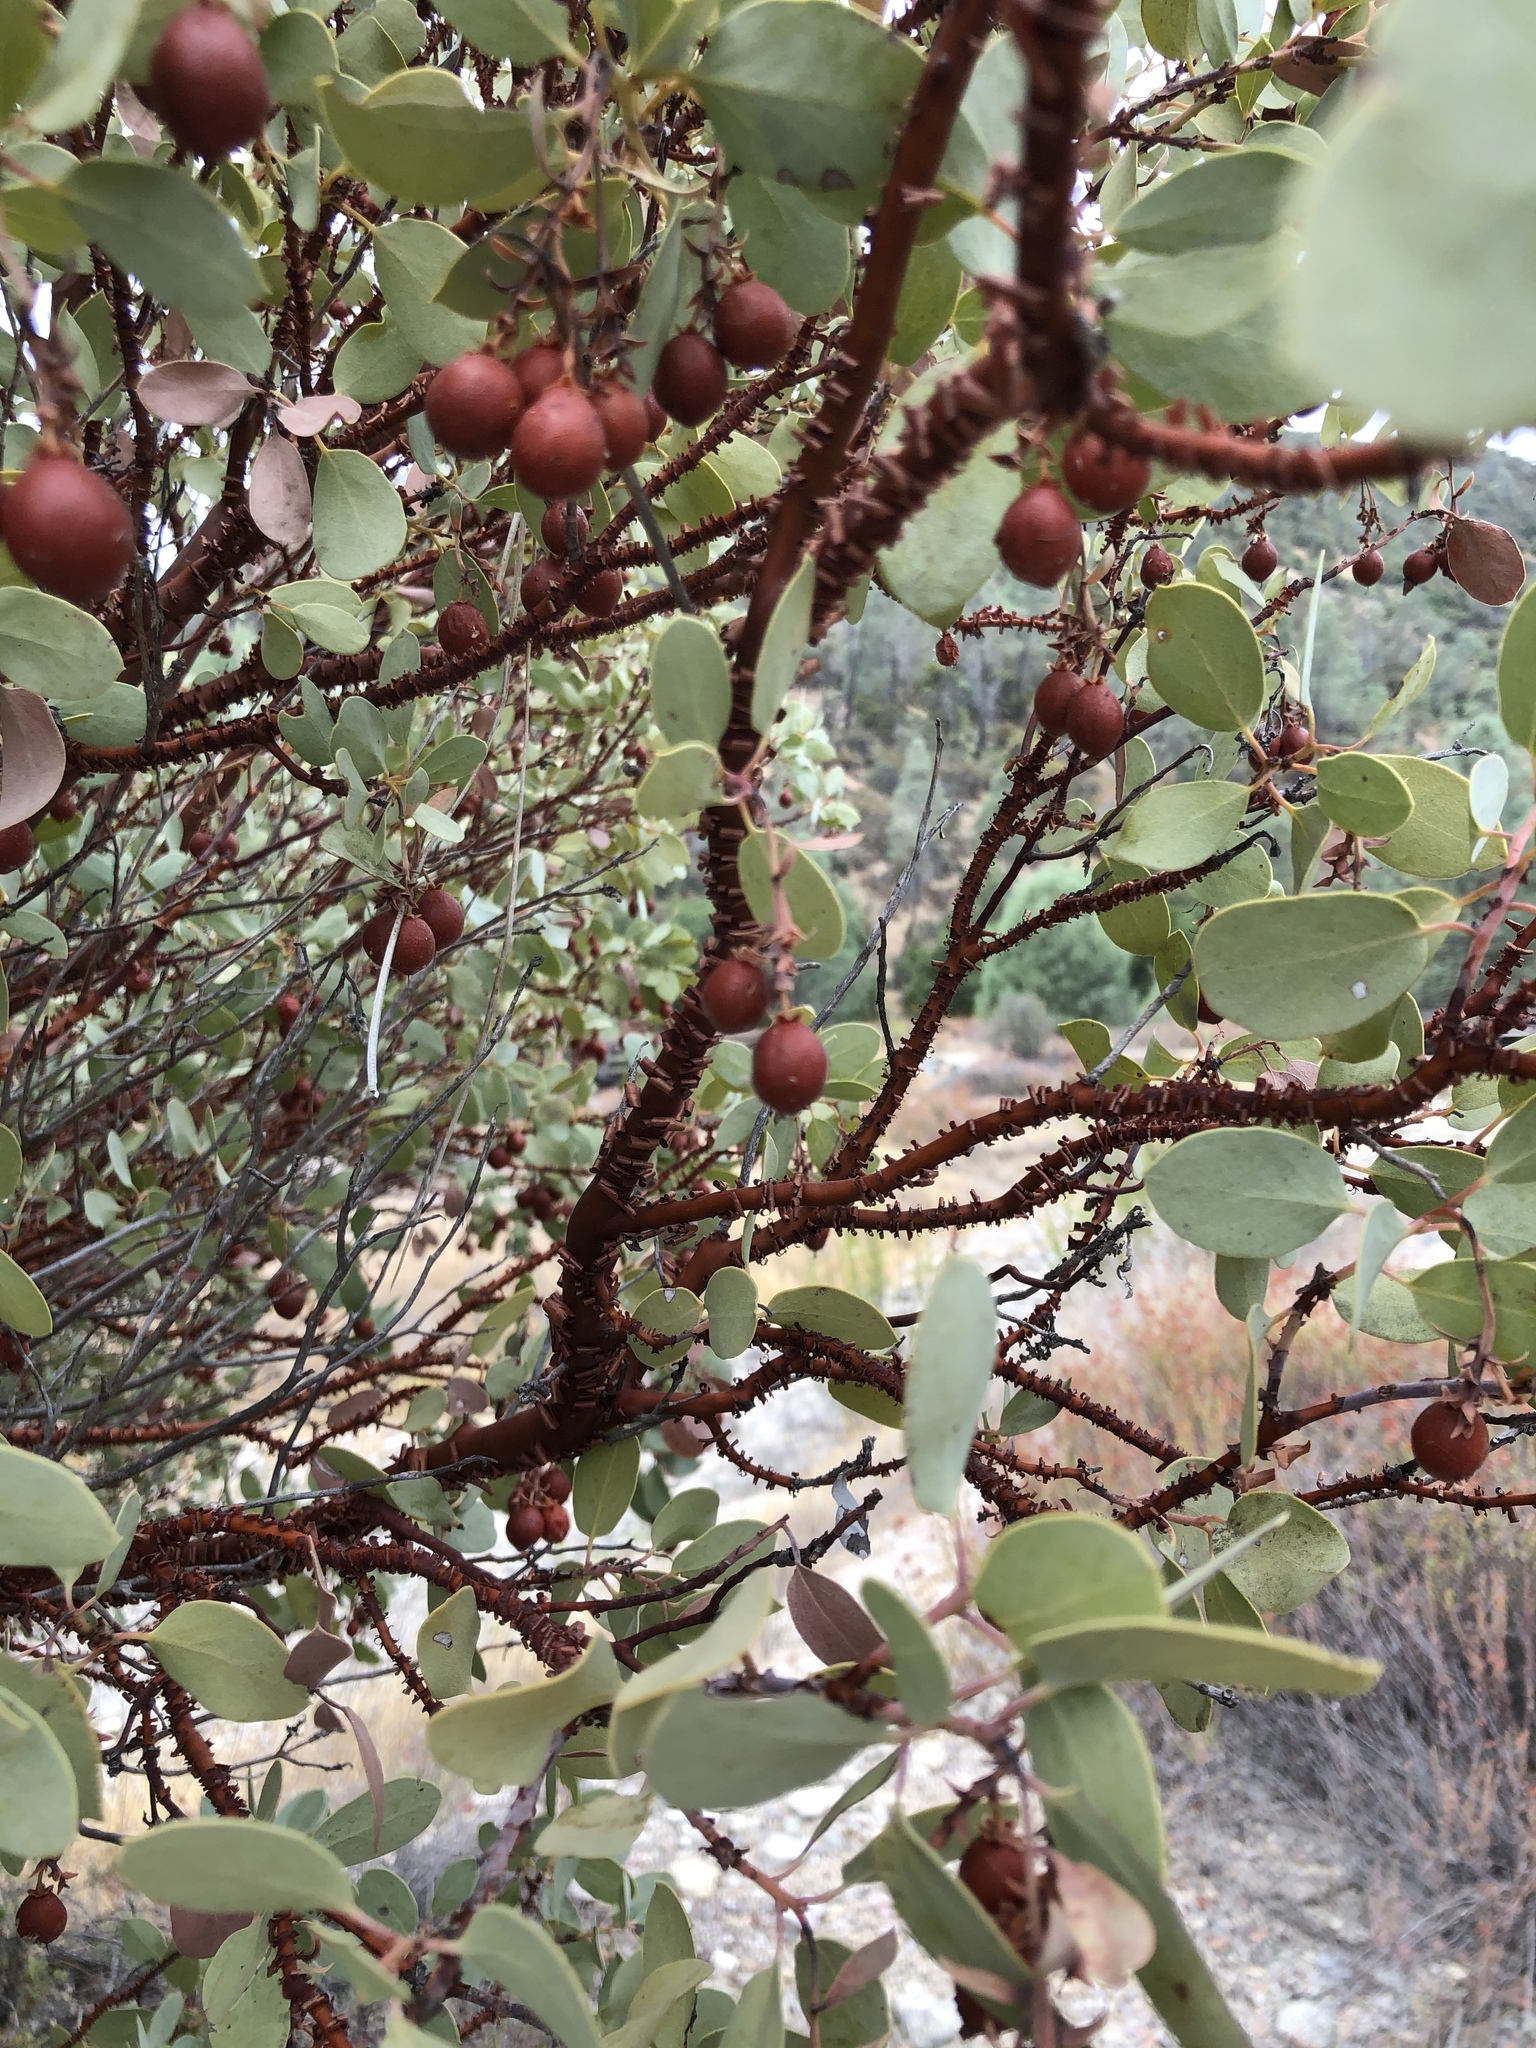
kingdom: Plantae
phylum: Tracheophyta
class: Magnoliopsida
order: Ericales
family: Ericaceae
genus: Arctostaphylos
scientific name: Arctostaphylos glauca
